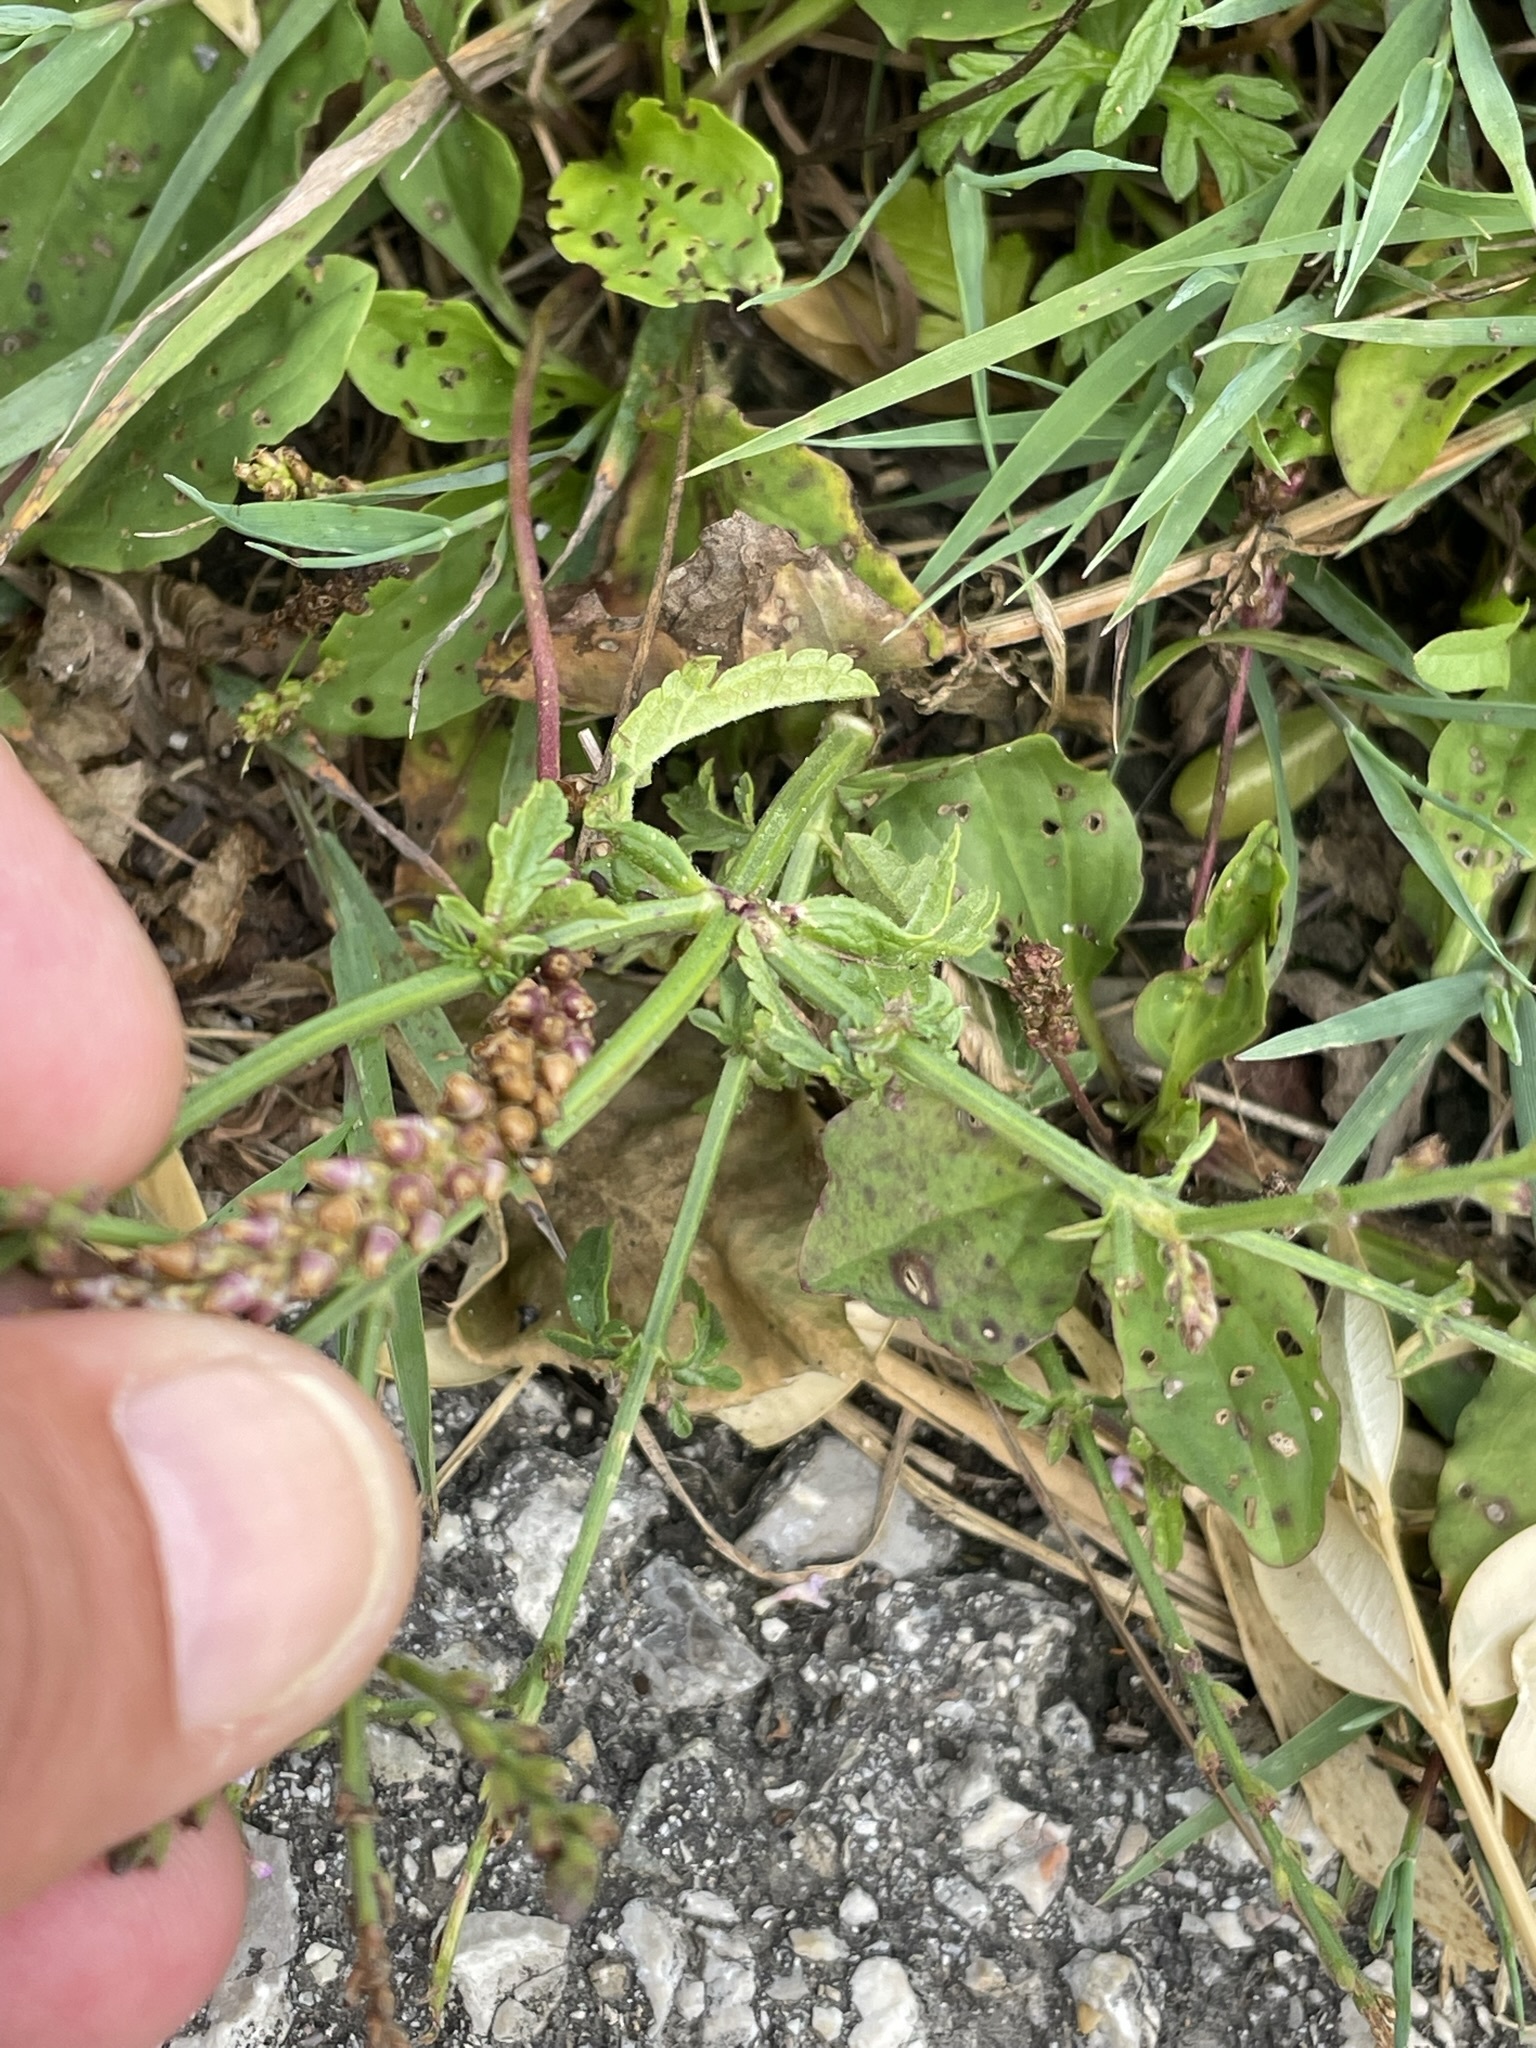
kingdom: Plantae
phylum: Tracheophyta
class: Magnoliopsida
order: Lamiales
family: Verbenaceae
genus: Verbena
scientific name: Verbena officinalis
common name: Vervain
